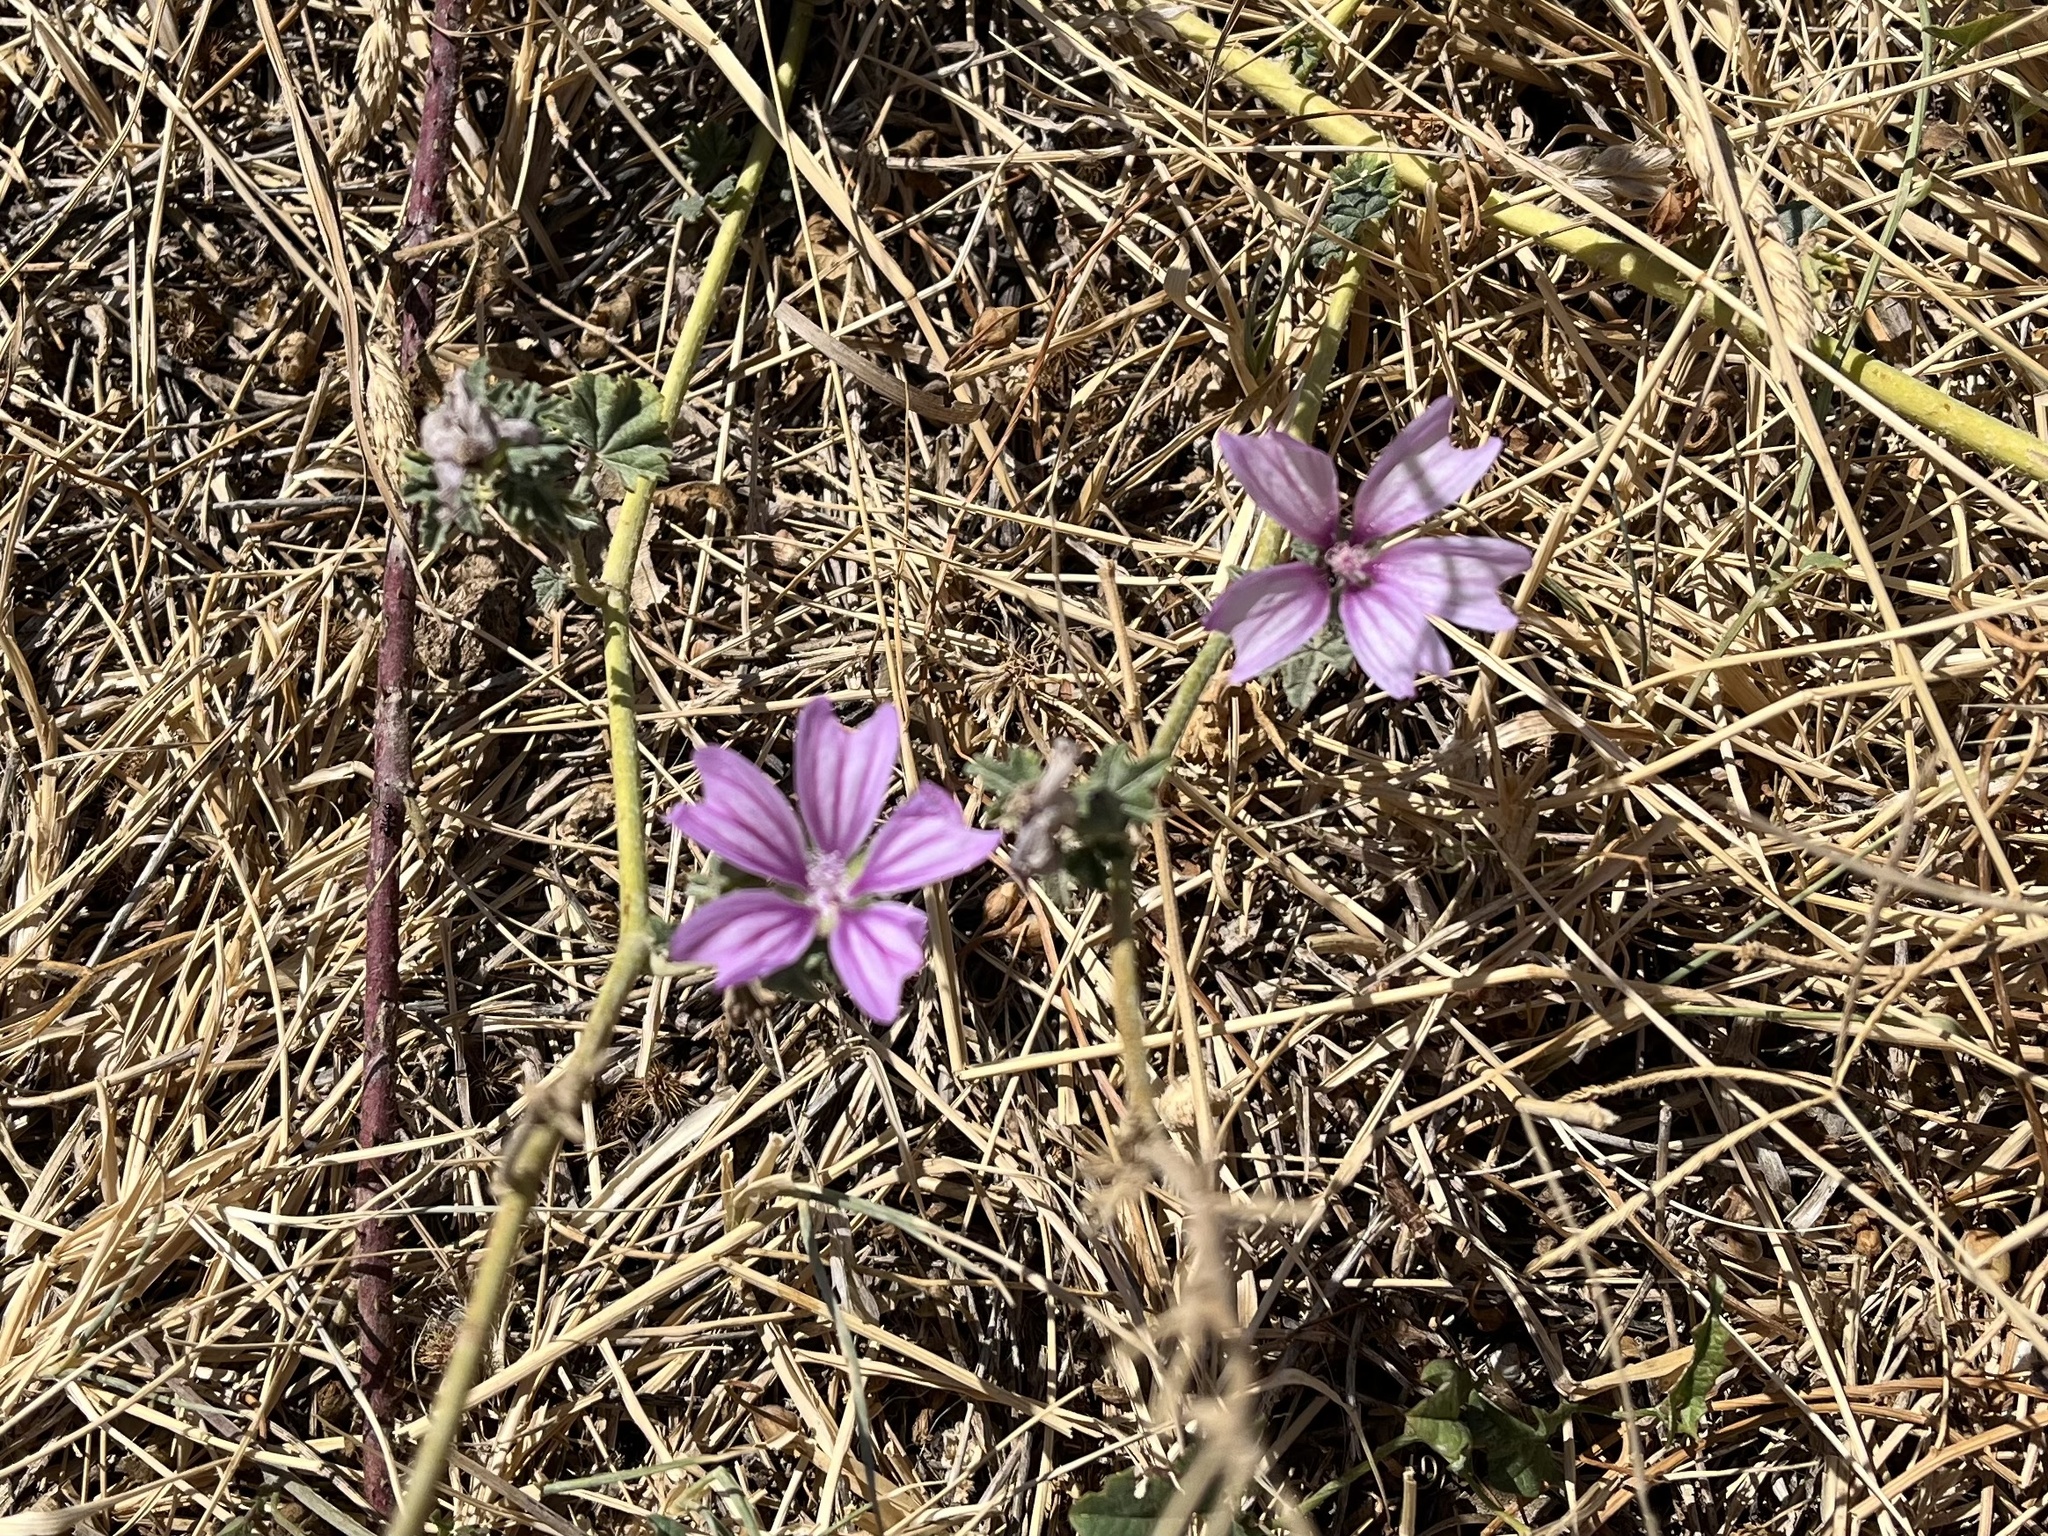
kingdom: Plantae
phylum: Tracheophyta
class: Magnoliopsida
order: Malvales
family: Malvaceae
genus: Malva
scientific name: Malva sylvestris
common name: Common mallow
